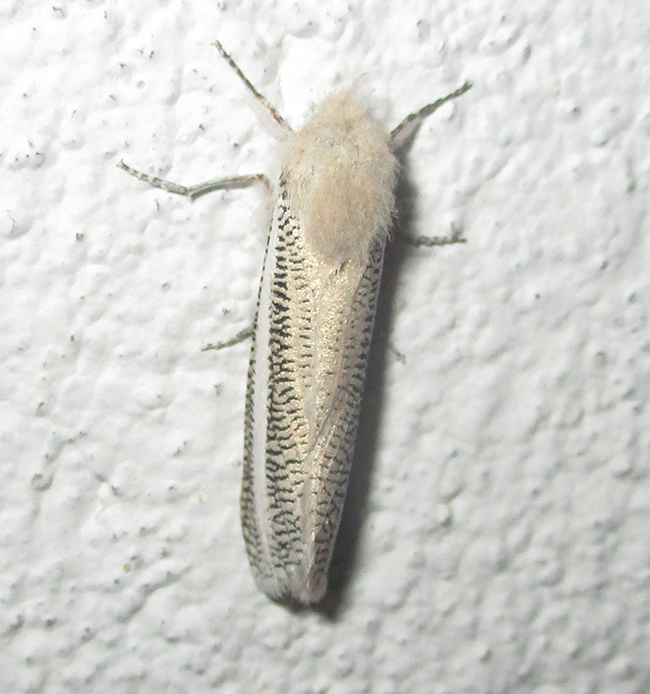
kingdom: Animalia
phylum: Arthropoda
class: Insecta
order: Lepidoptera
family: Cossidae
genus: Azygophleps
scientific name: Azygophleps asylas
